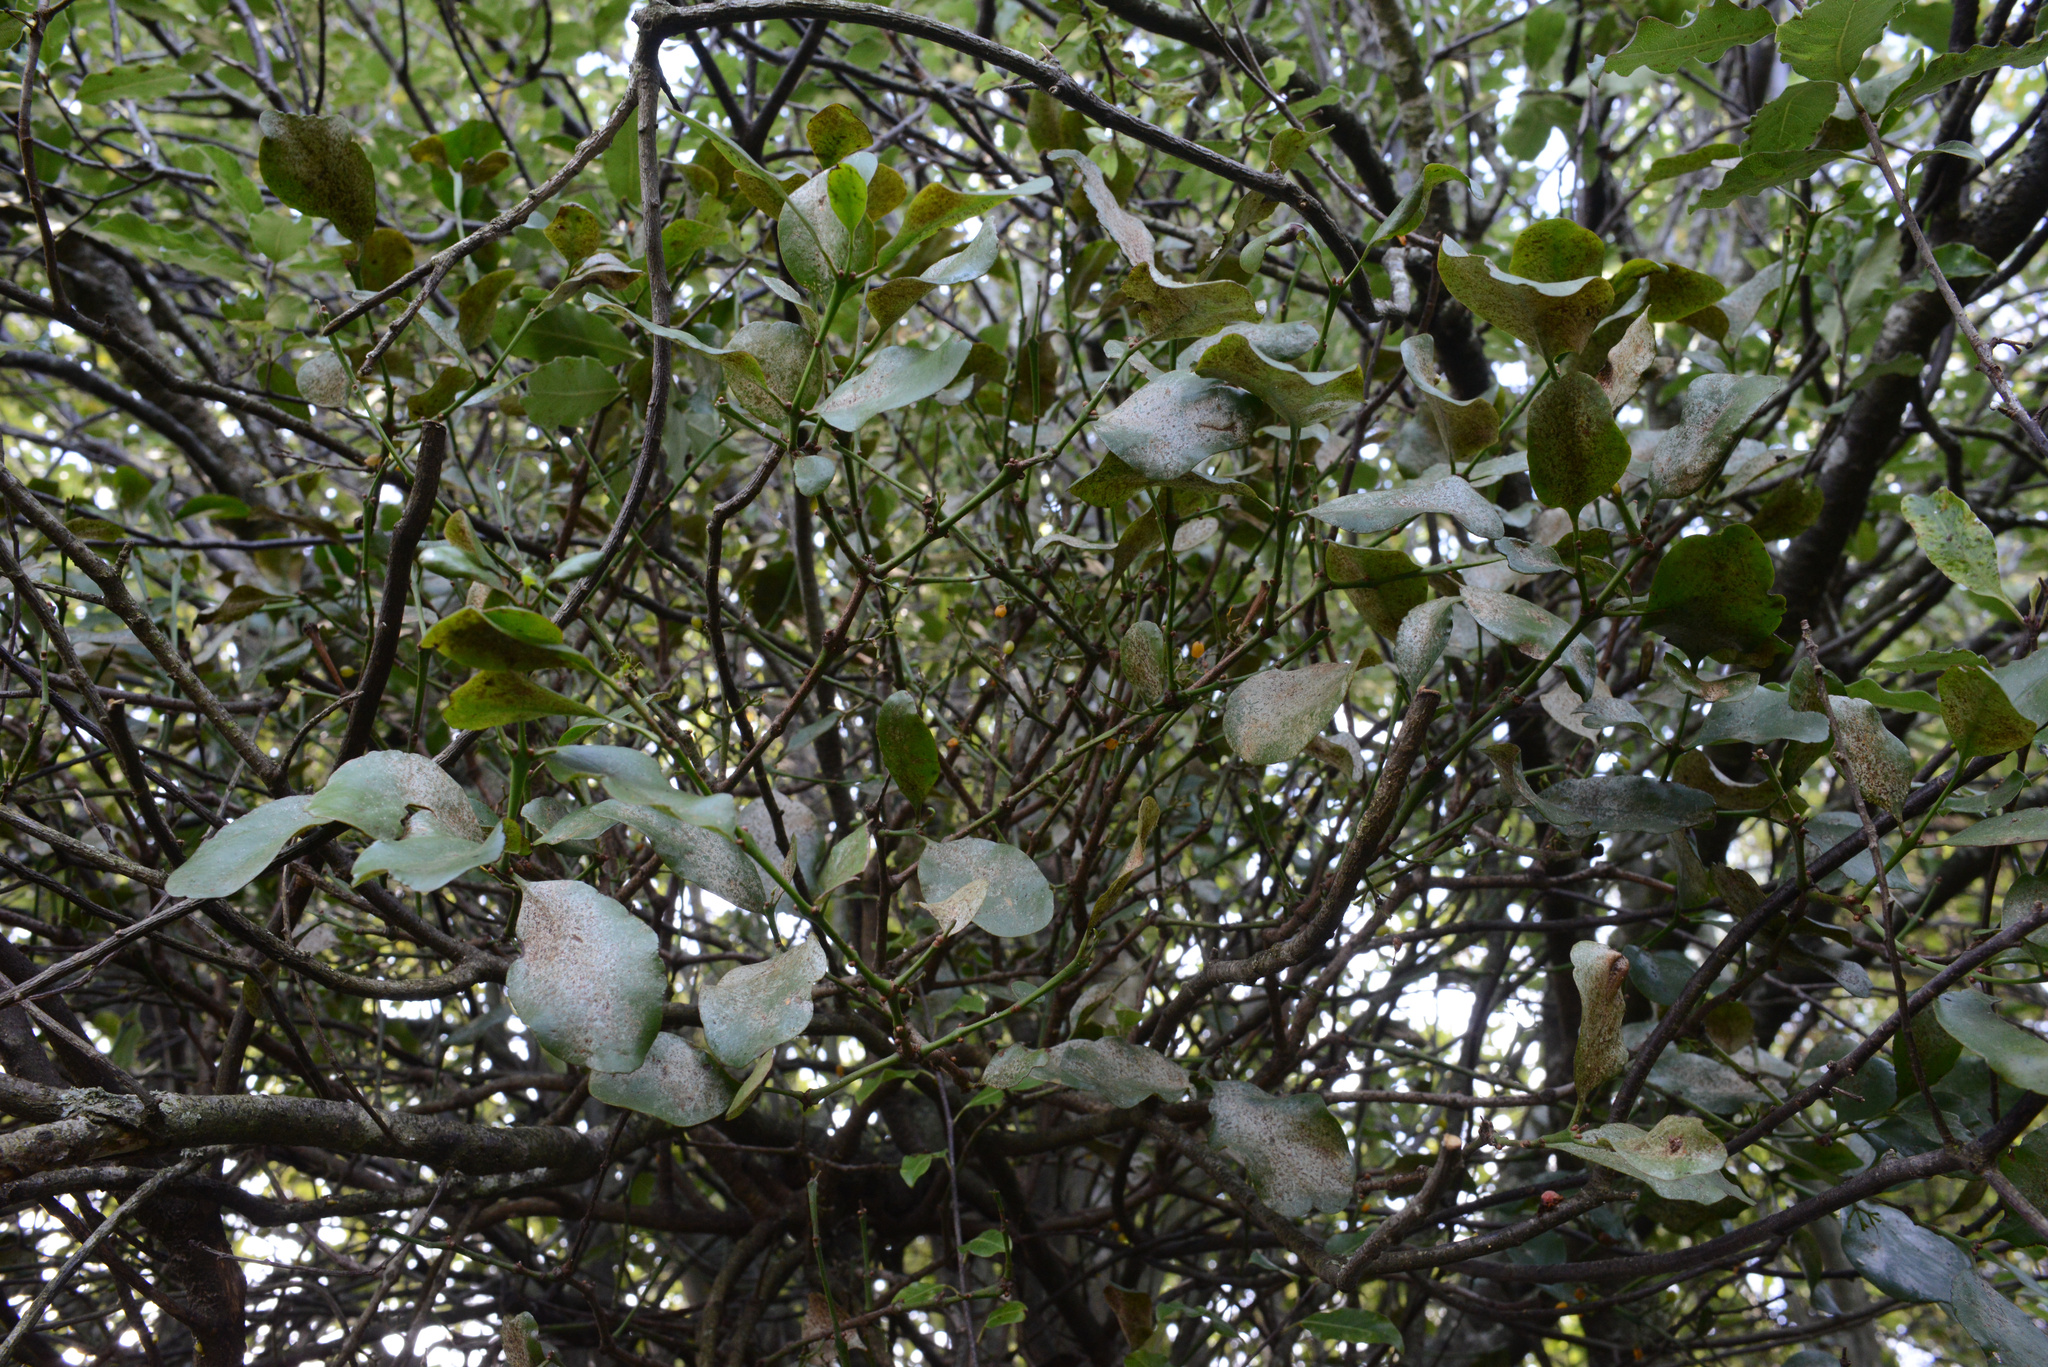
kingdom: Plantae
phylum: Tracheophyta
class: Magnoliopsida
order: Santalales
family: Loranthaceae
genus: Ileostylus
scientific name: Ileostylus micranthus
